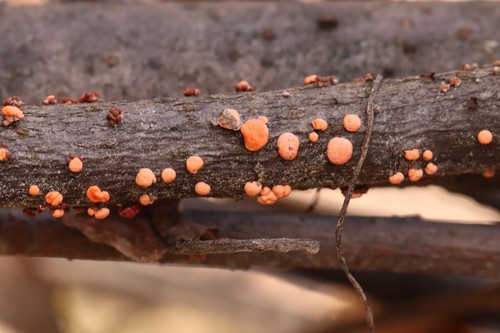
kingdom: Fungi
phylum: Ascomycota
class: Sordariomycetes
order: Hypocreales
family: Nectriaceae
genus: Nectria
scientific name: Nectria cinnabarina
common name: Coral spot
